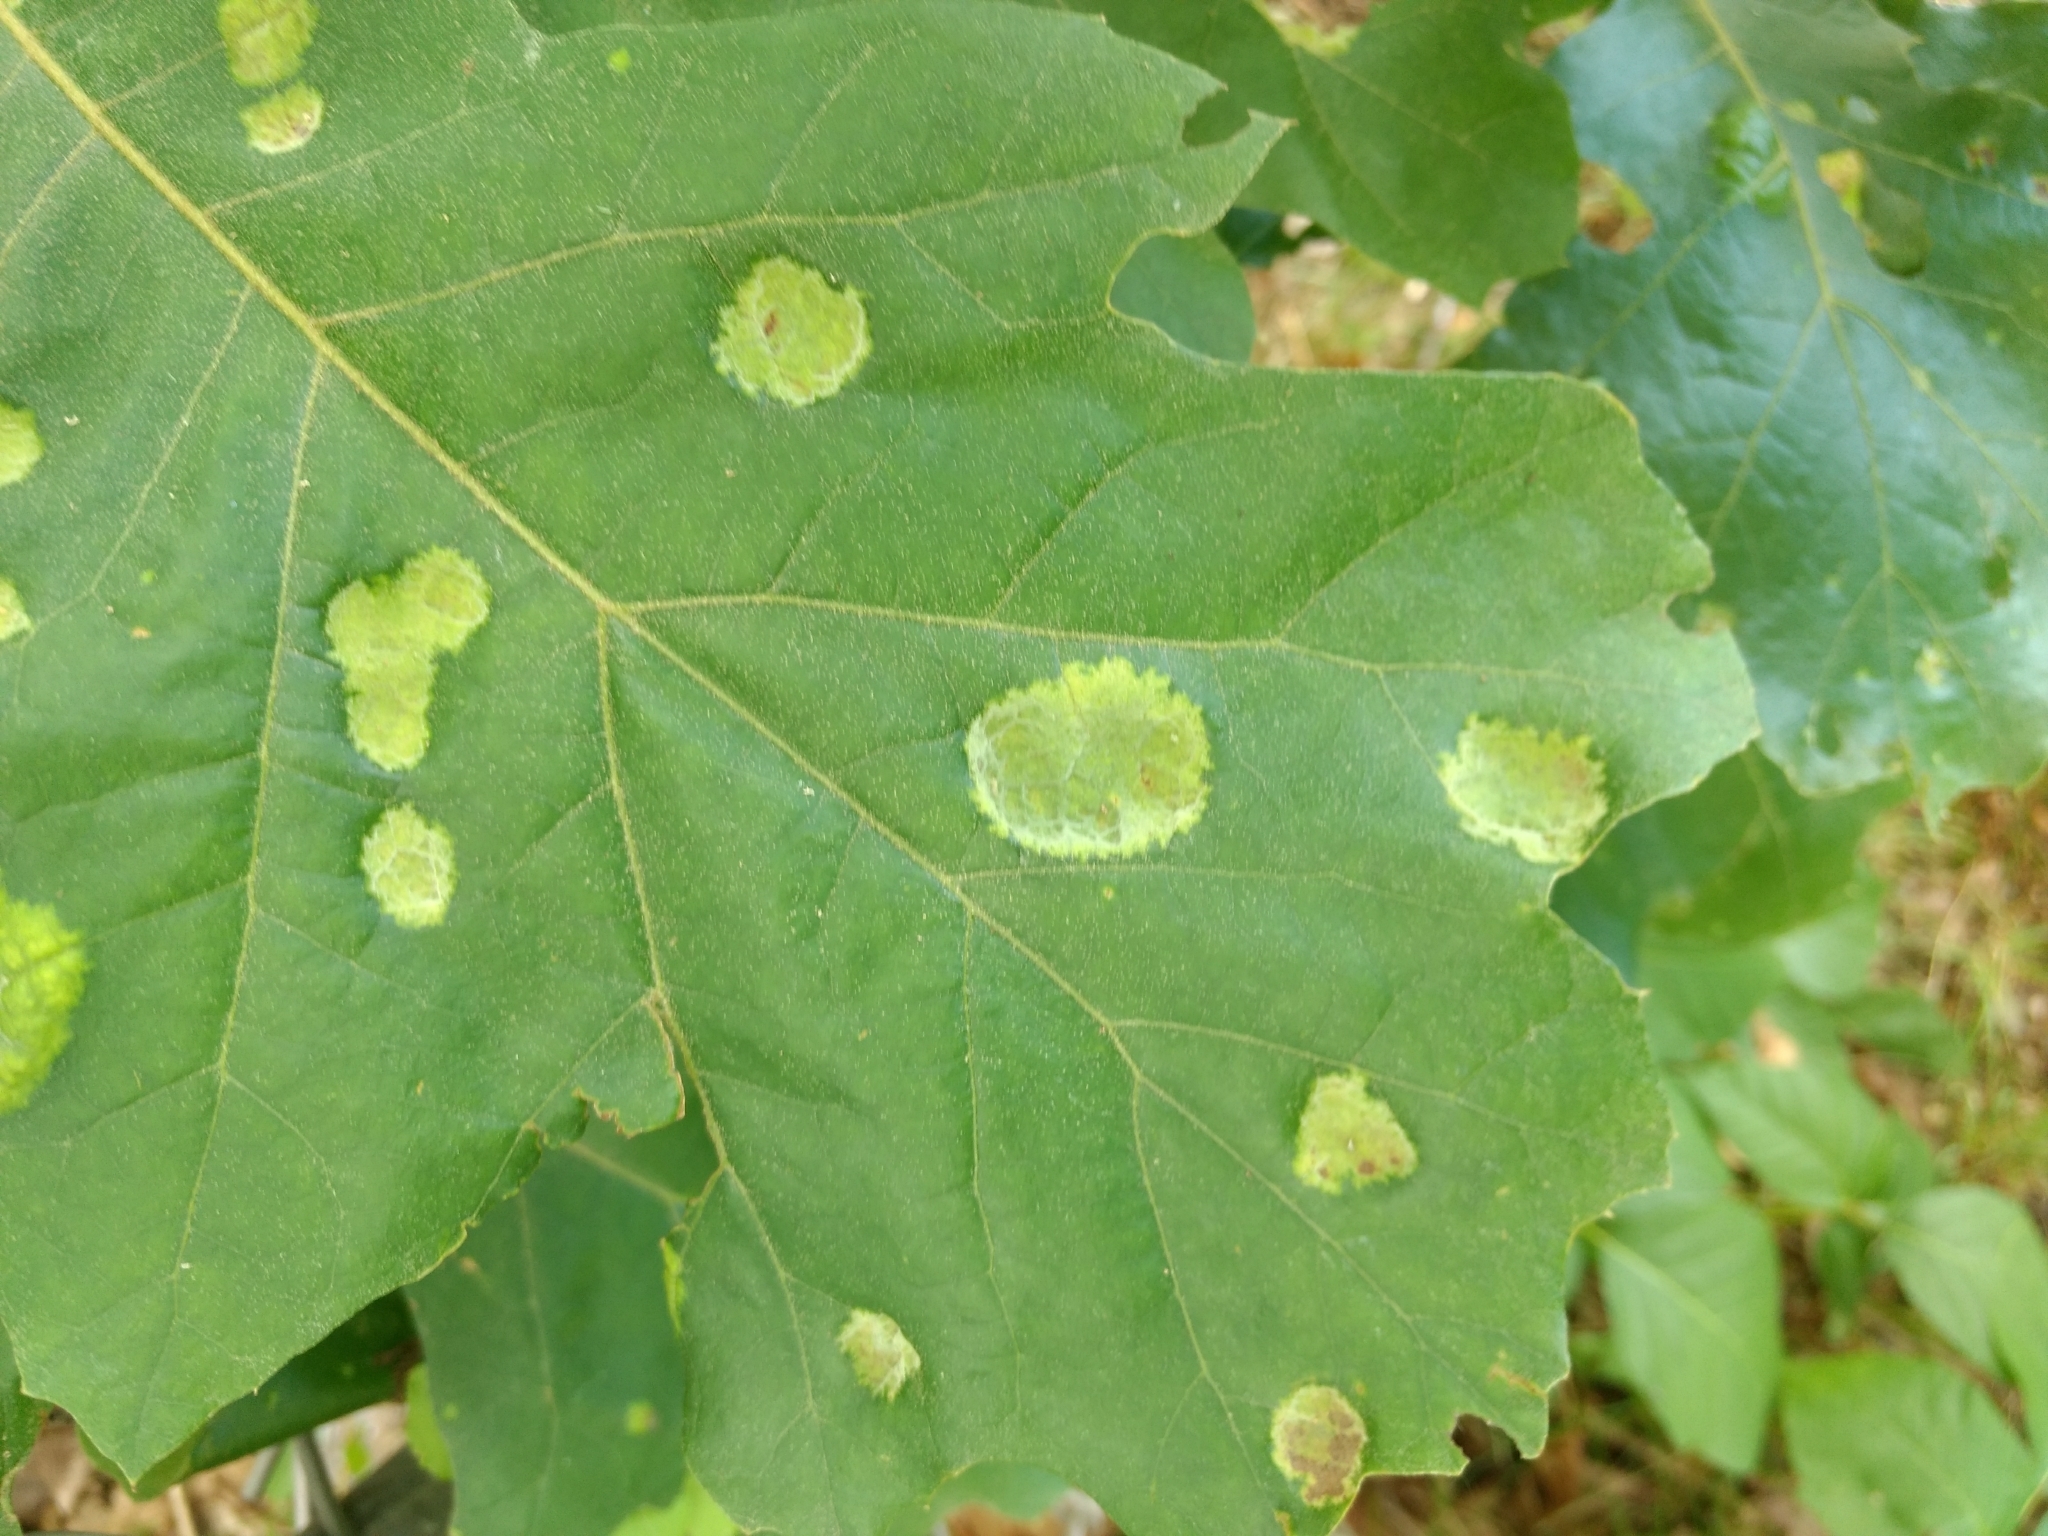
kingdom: Fungi
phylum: Ascomycota
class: Taphrinomycetes
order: Taphrinales
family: Taphrinaceae
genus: Taphrina
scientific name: Taphrina caerulescens
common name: Oak leaf blister
